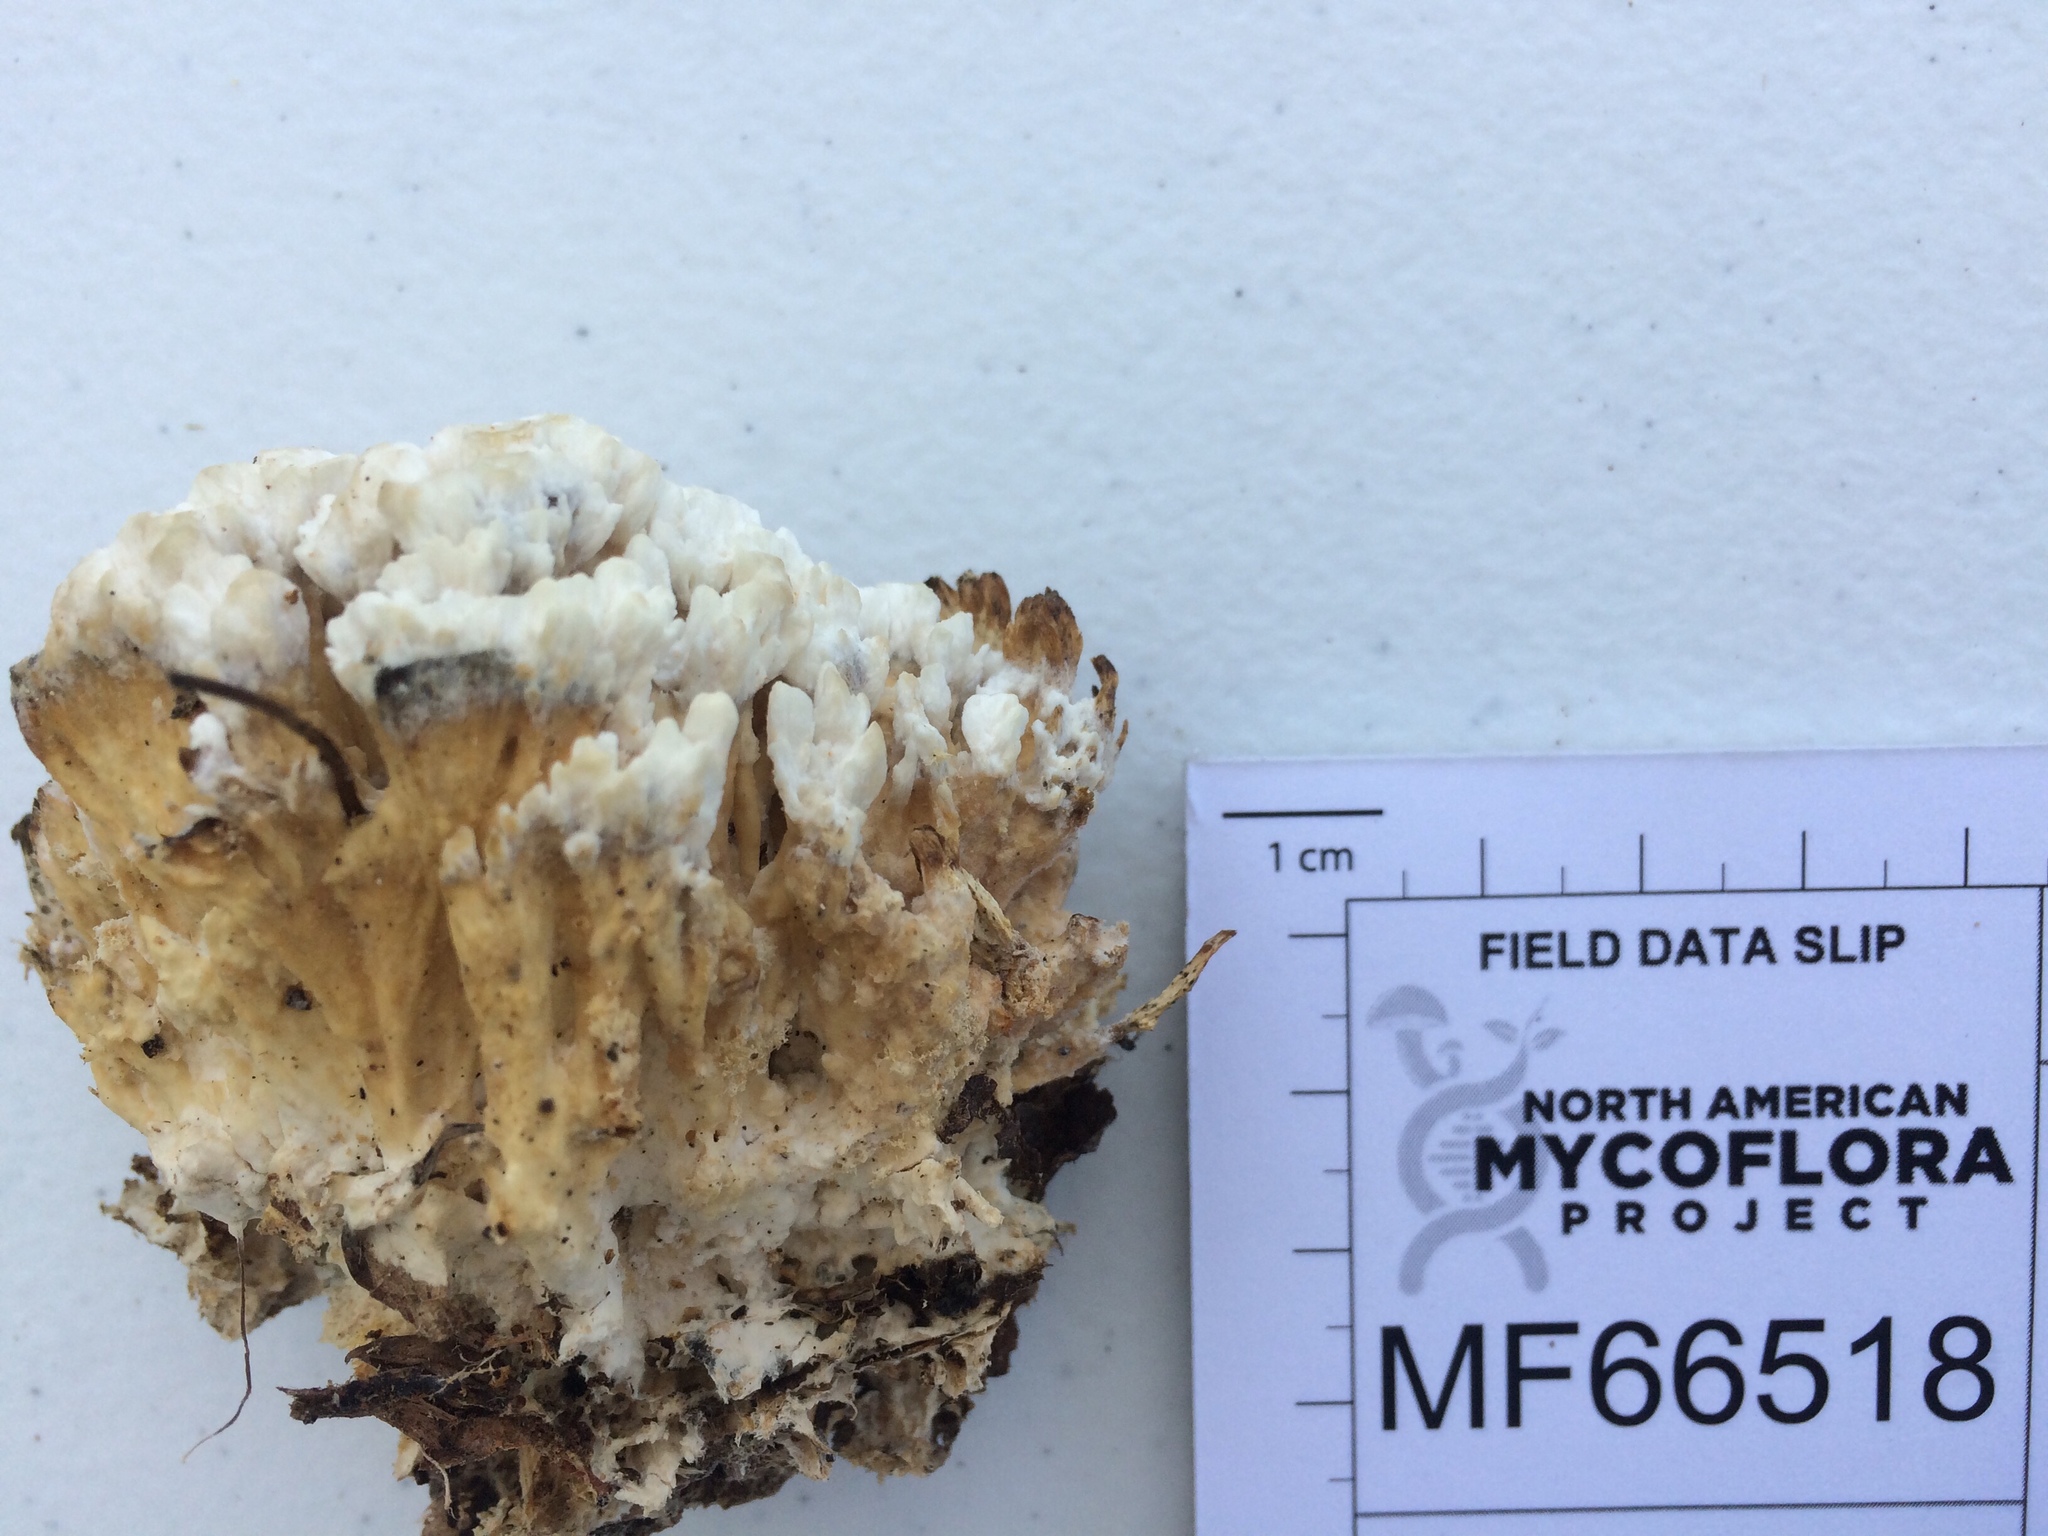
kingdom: Fungi
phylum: Basidiomycota
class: Agaricomycetes
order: Thelephorales
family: Thelephoraceae
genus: Thelephora
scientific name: Thelephora vialis
